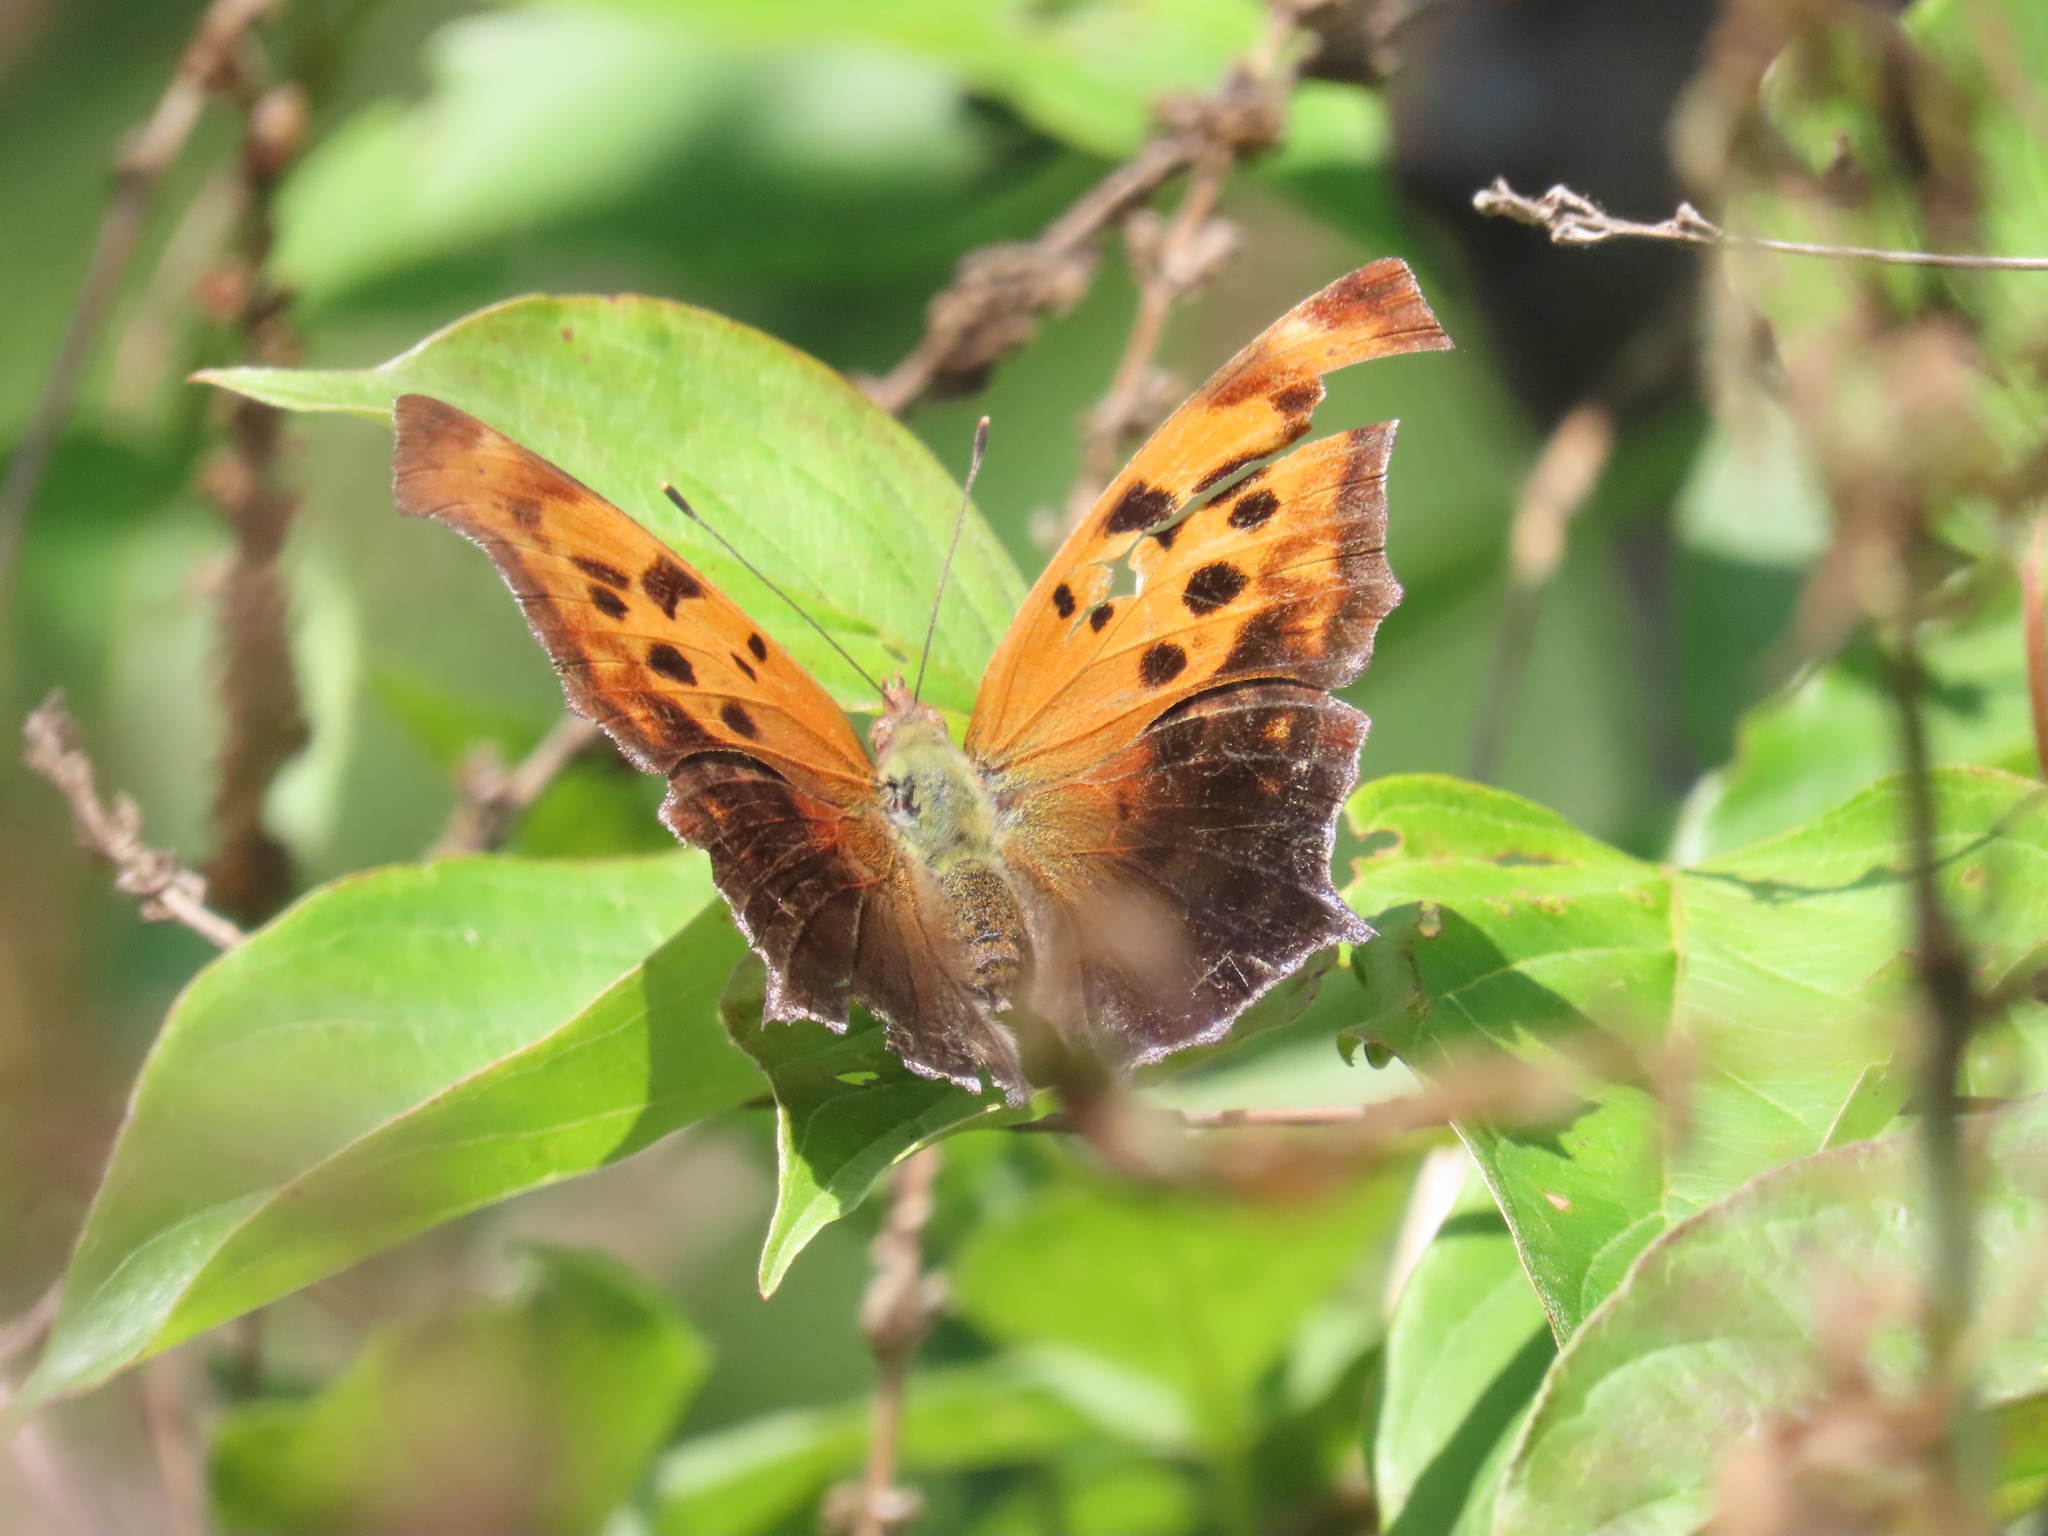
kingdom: Animalia
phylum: Arthropoda
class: Insecta
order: Lepidoptera
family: Nymphalidae
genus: Polygonia
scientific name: Polygonia interrogationis
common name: Question mark
